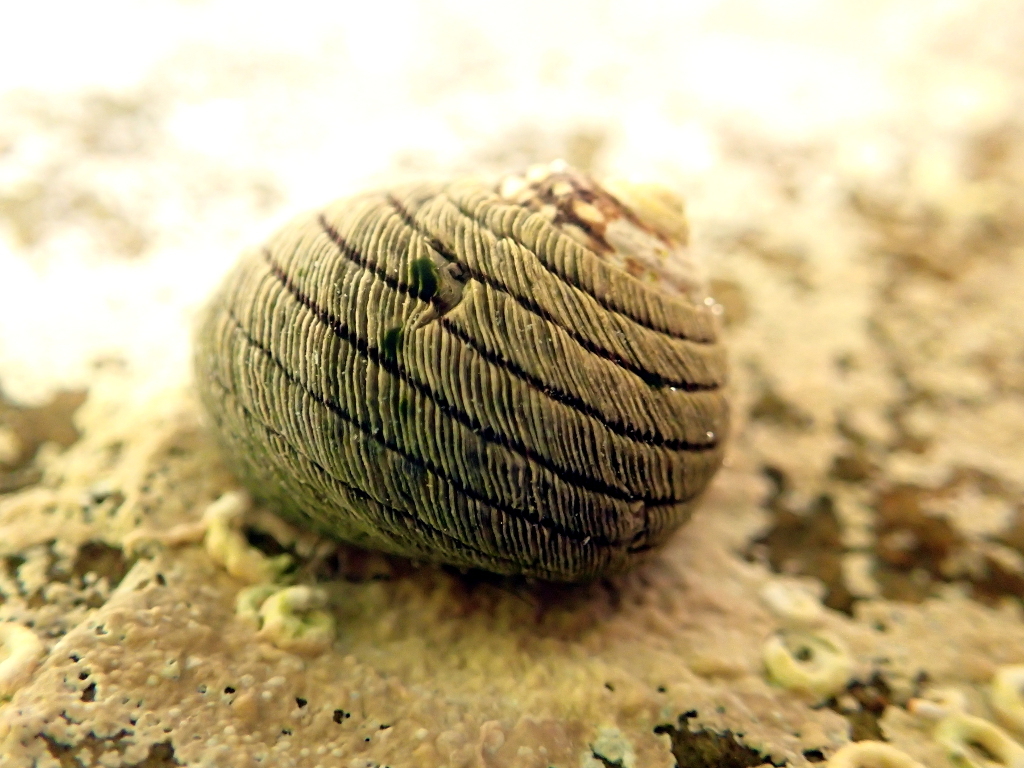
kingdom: Animalia
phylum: Mollusca
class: Gastropoda
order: Trochida
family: Trochidae
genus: Diloma
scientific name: Diloma aethiops
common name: Scorched monodont
